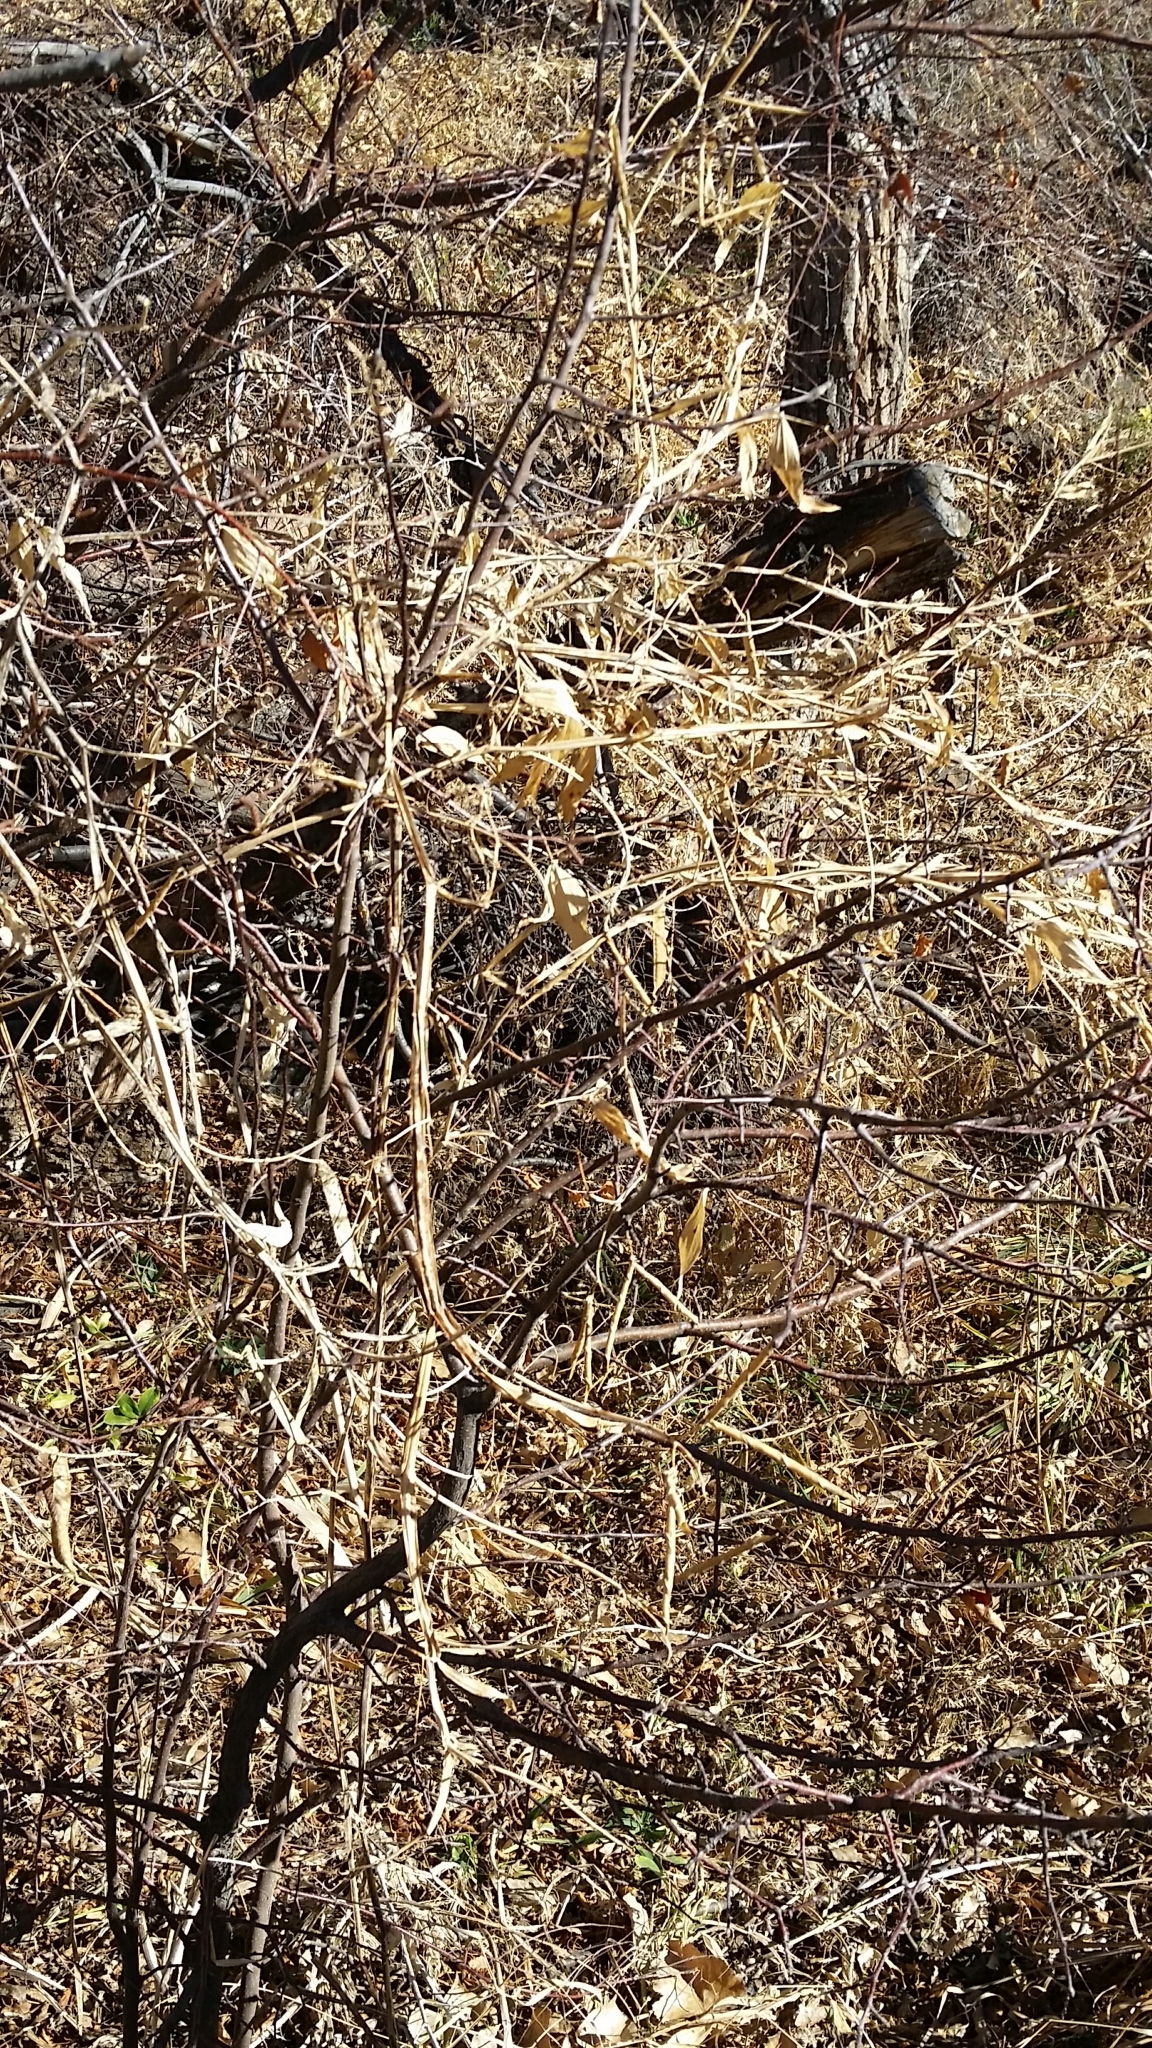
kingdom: Plantae
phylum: Tracheophyta
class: Magnoliopsida
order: Fabales
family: Fabaceae
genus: Lathyrus
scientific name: Lathyrus latifolius
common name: Perennial pea
